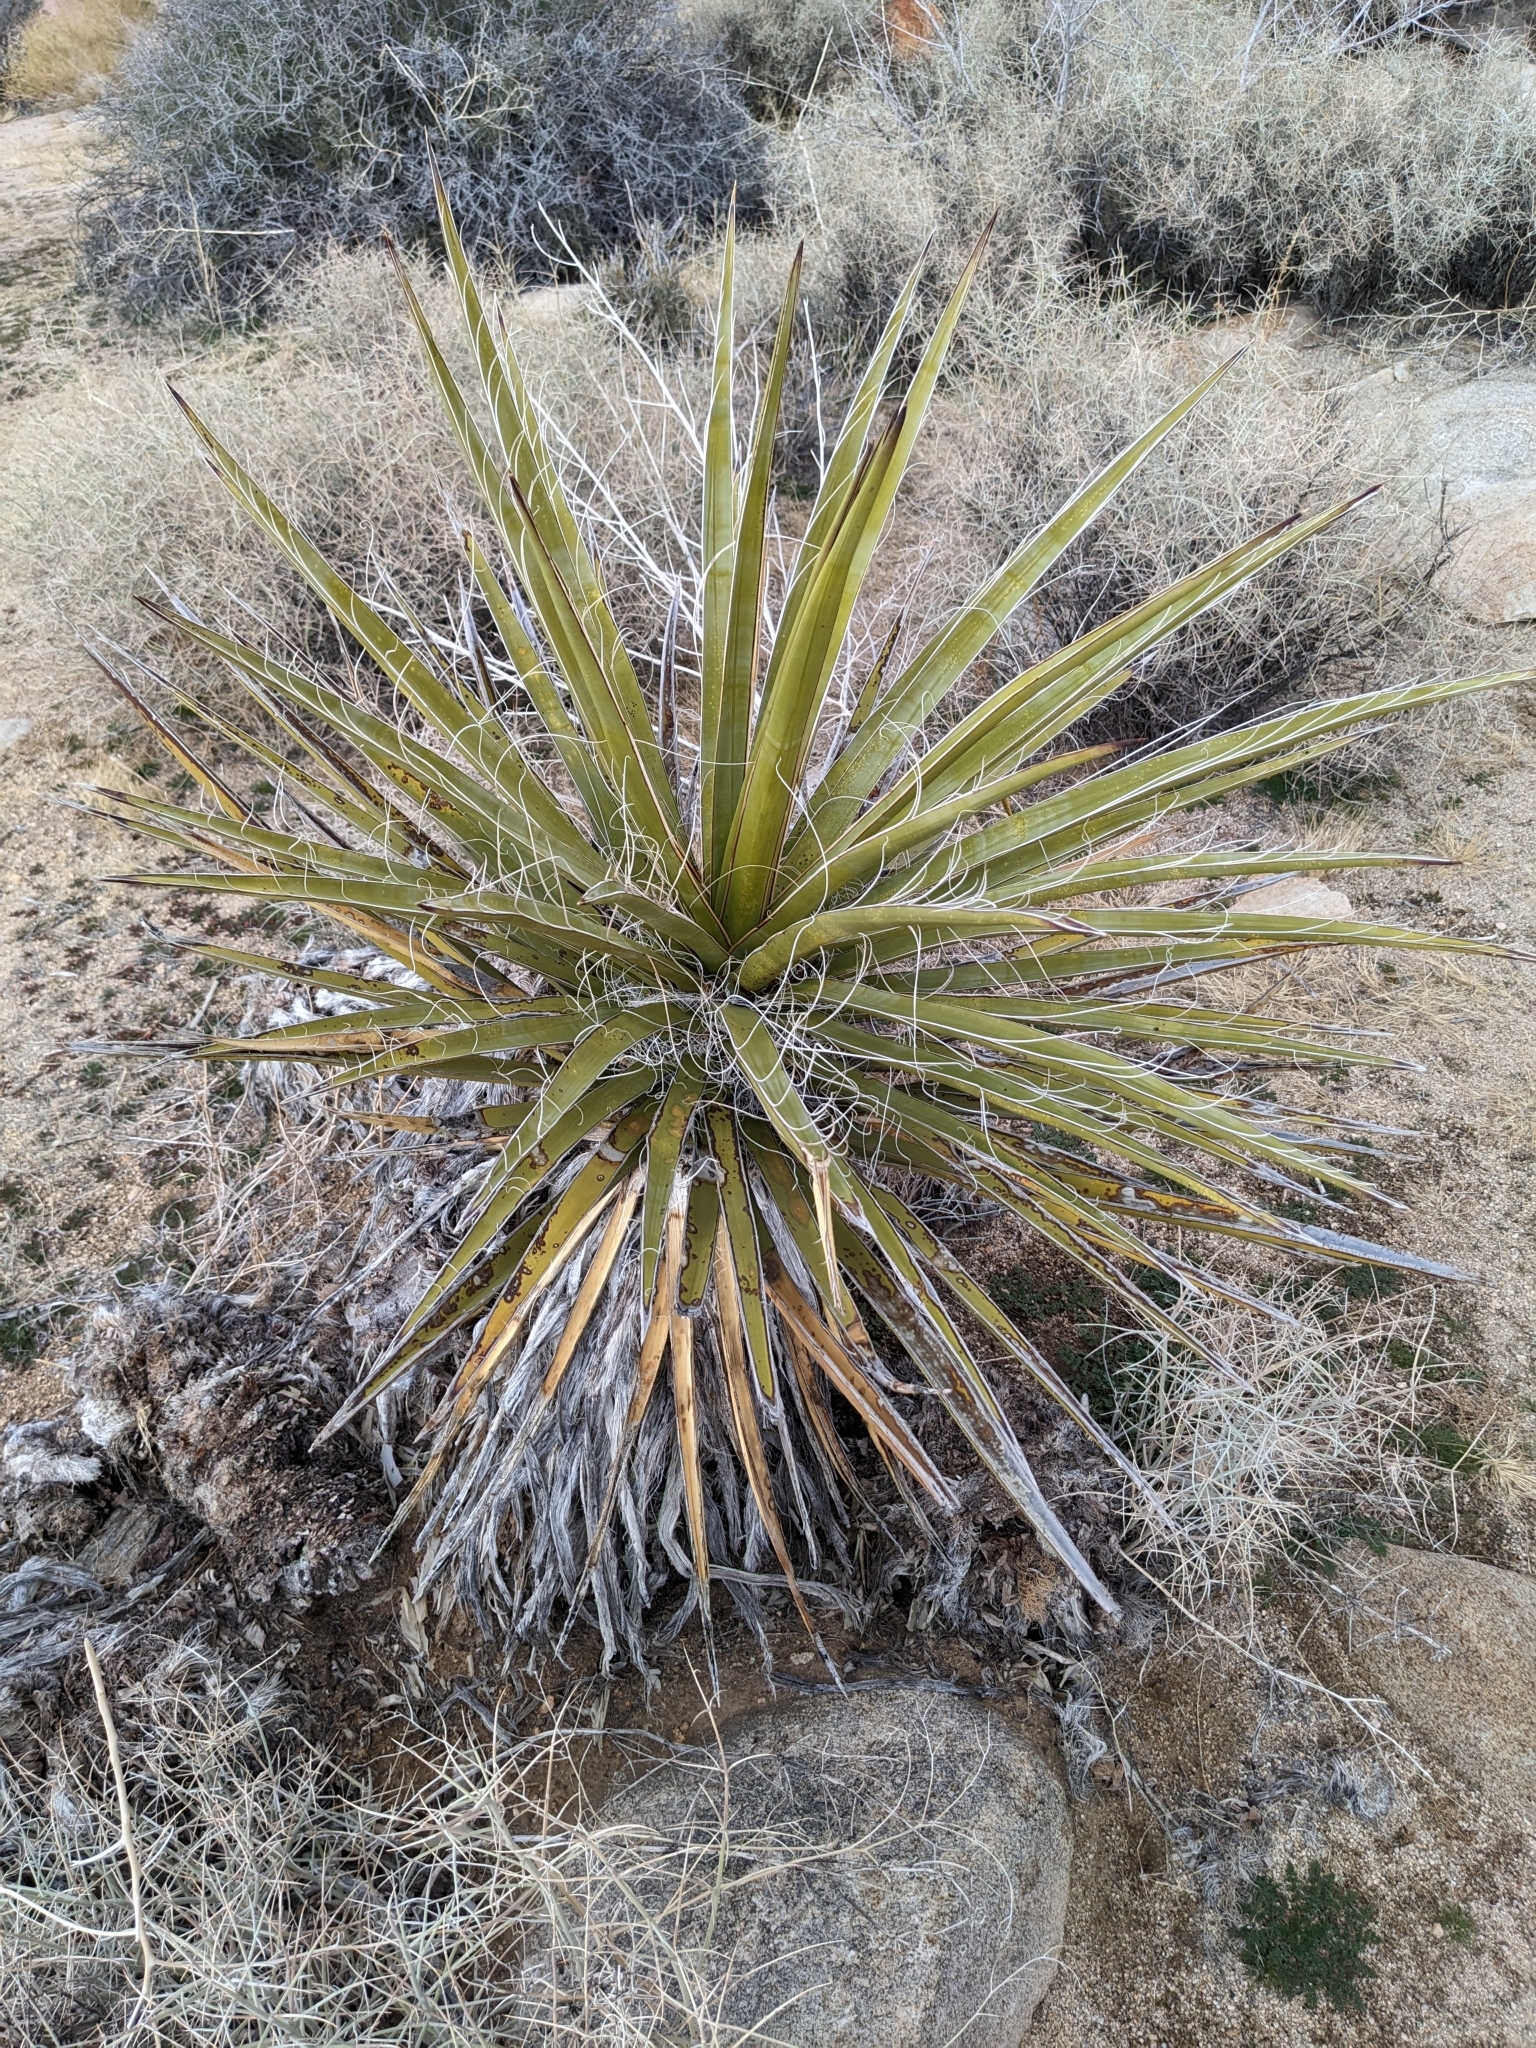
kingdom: Plantae
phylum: Tracheophyta
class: Liliopsida
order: Asparagales
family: Asparagaceae
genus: Yucca
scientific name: Yucca schidigera
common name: Mojave yucca
